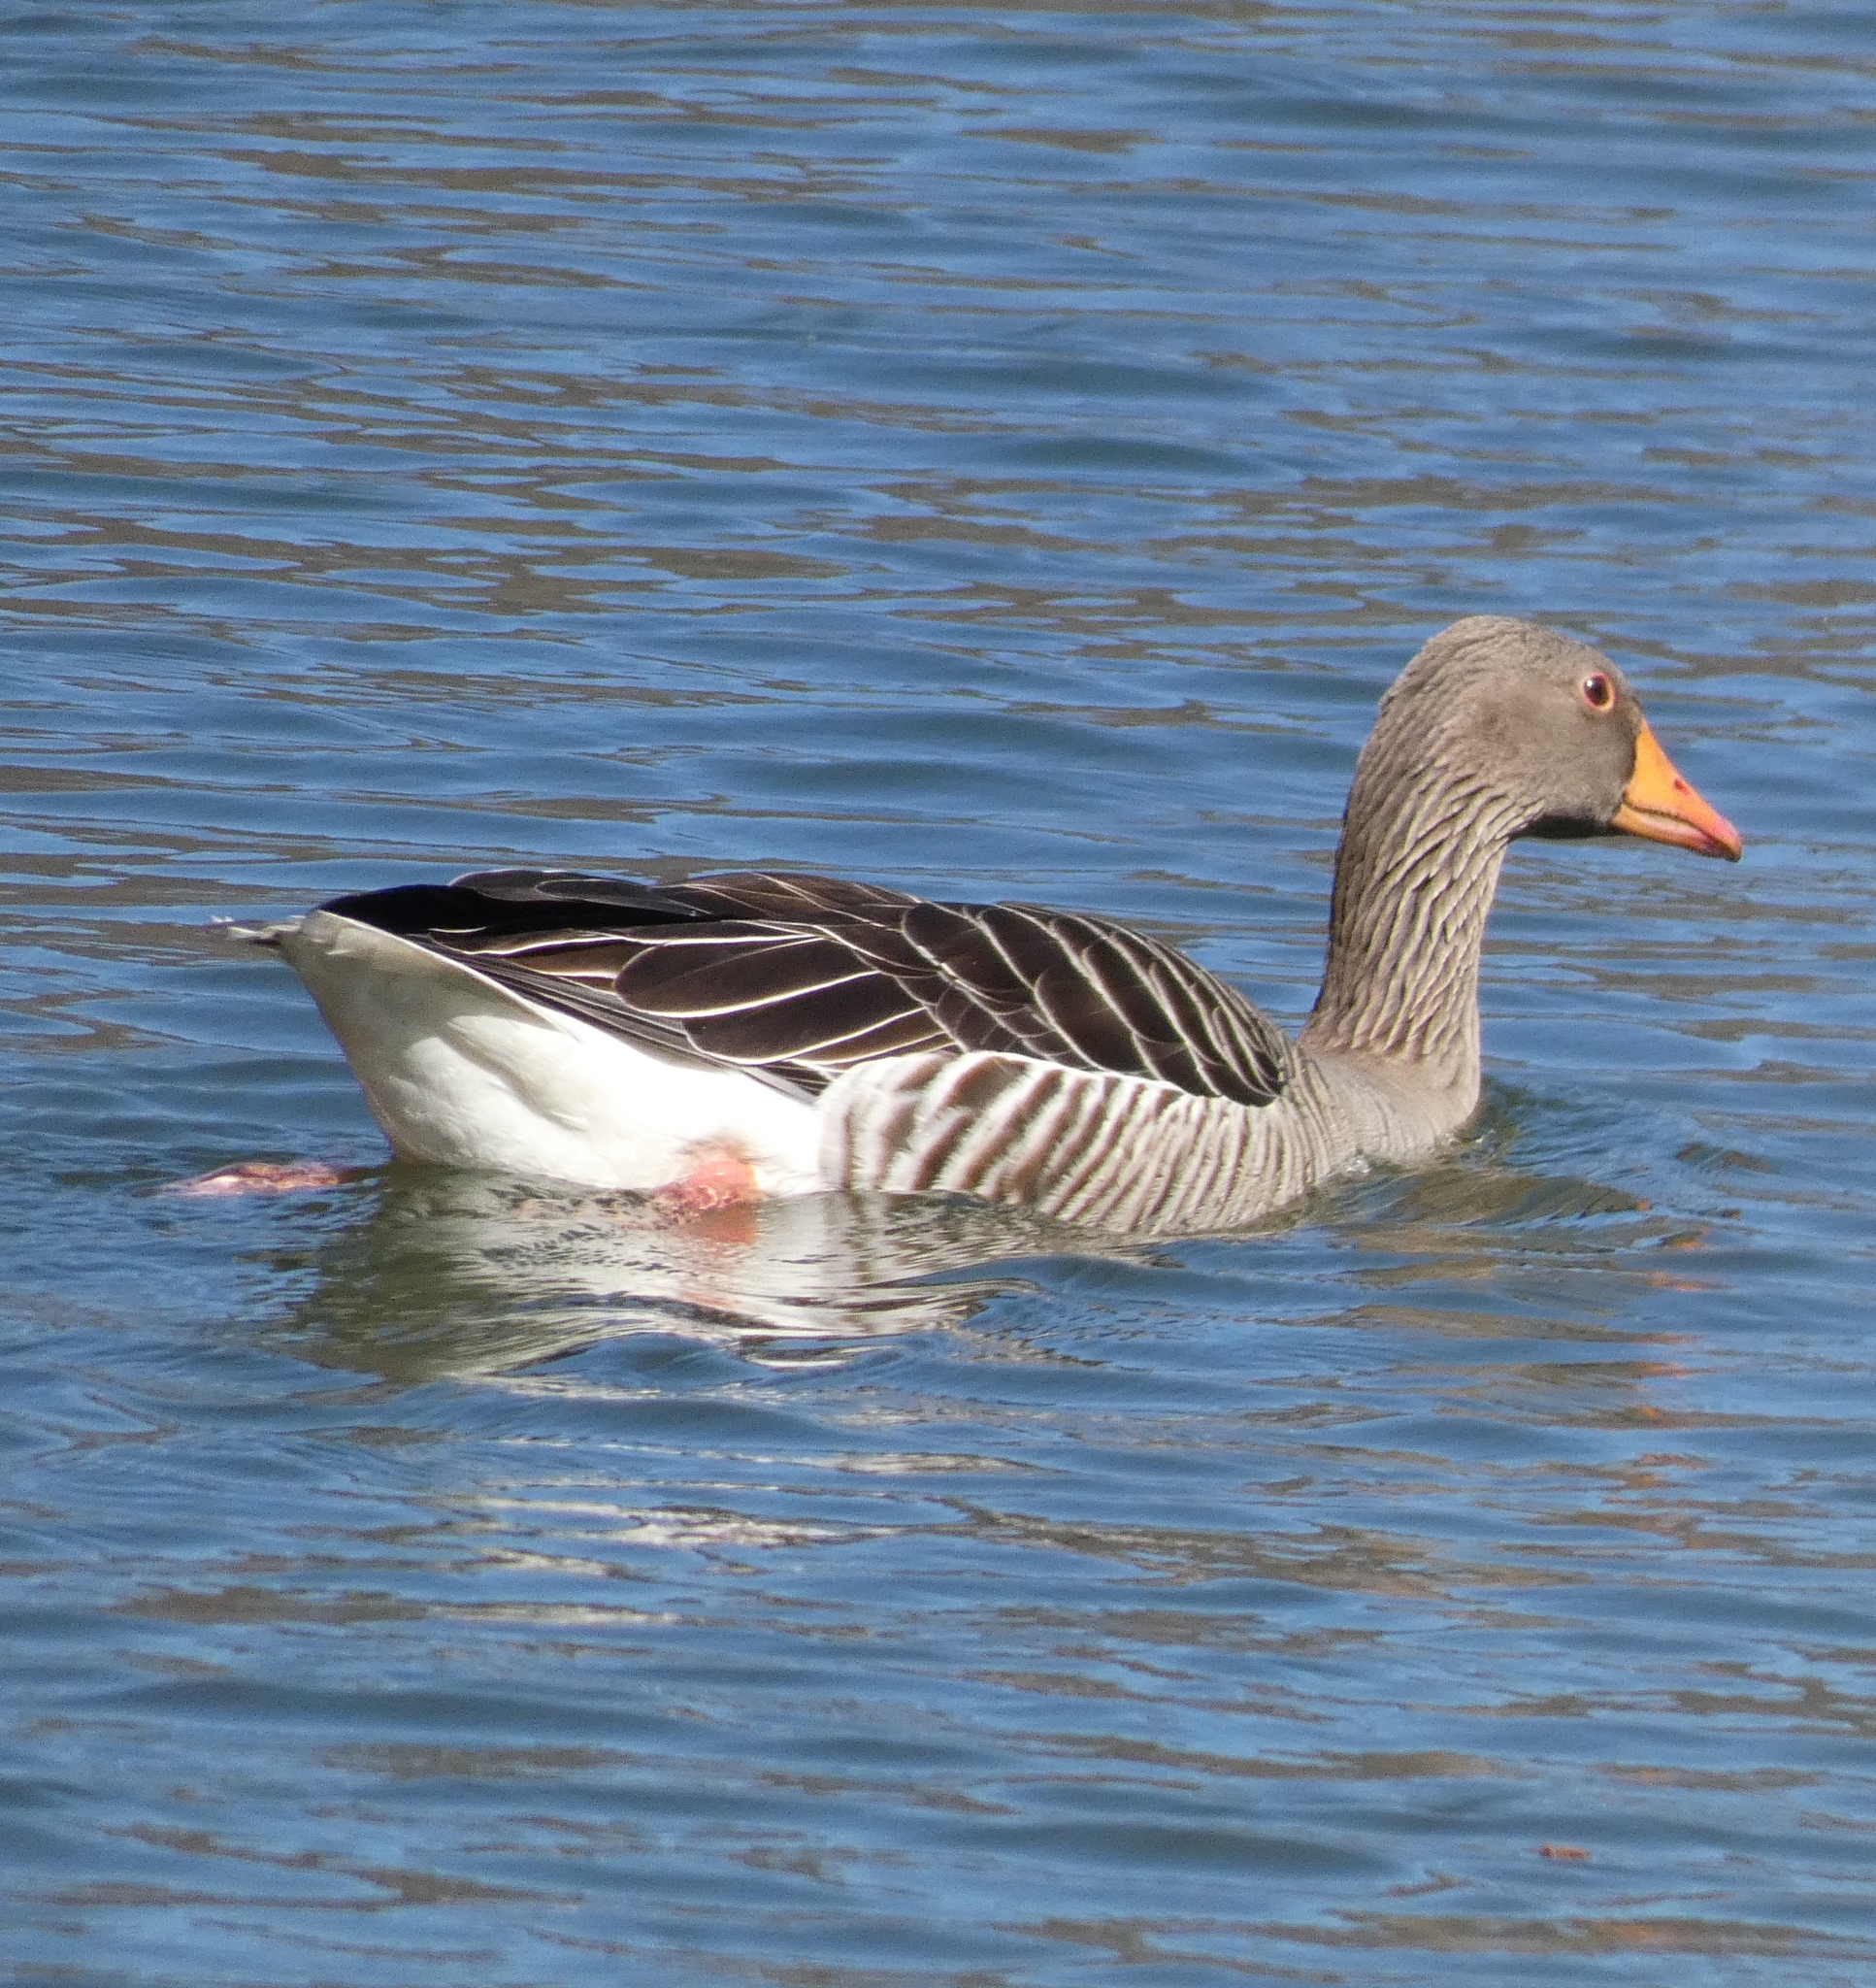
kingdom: Animalia
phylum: Chordata
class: Aves
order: Anseriformes
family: Anatidae
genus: Anser
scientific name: Anser anser
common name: Greylag goose
